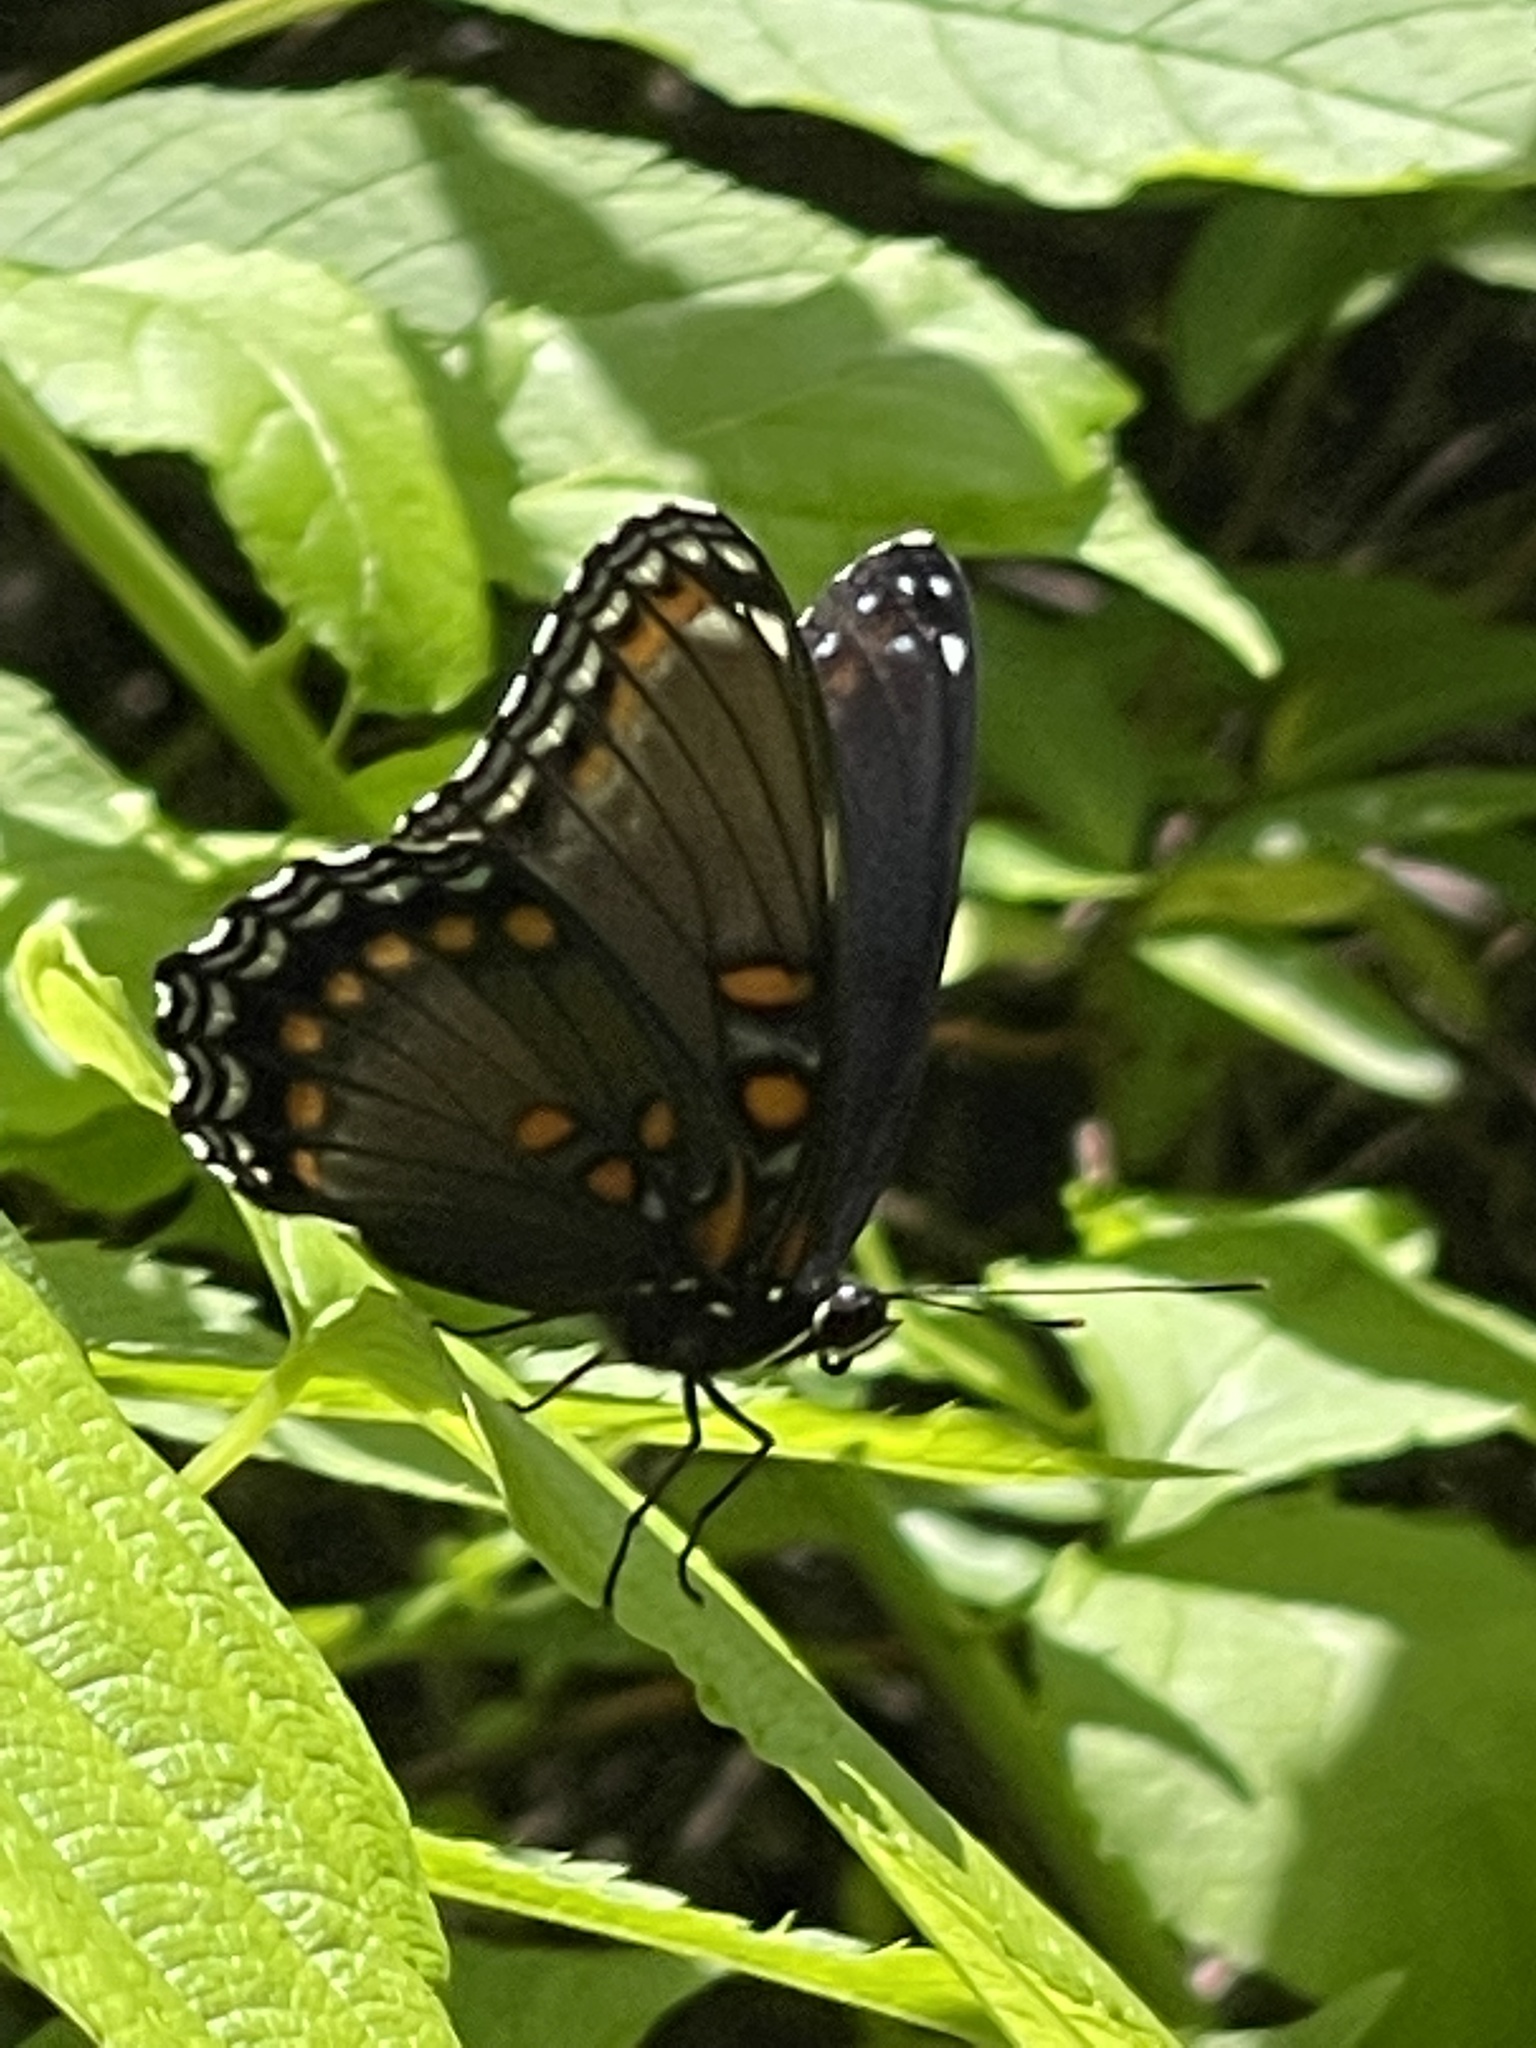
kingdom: Animalia
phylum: Arthropoda
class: Insecta
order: Lepidoptera
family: Nymphalidae
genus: Limenitis
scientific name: Limenitis astyanax
